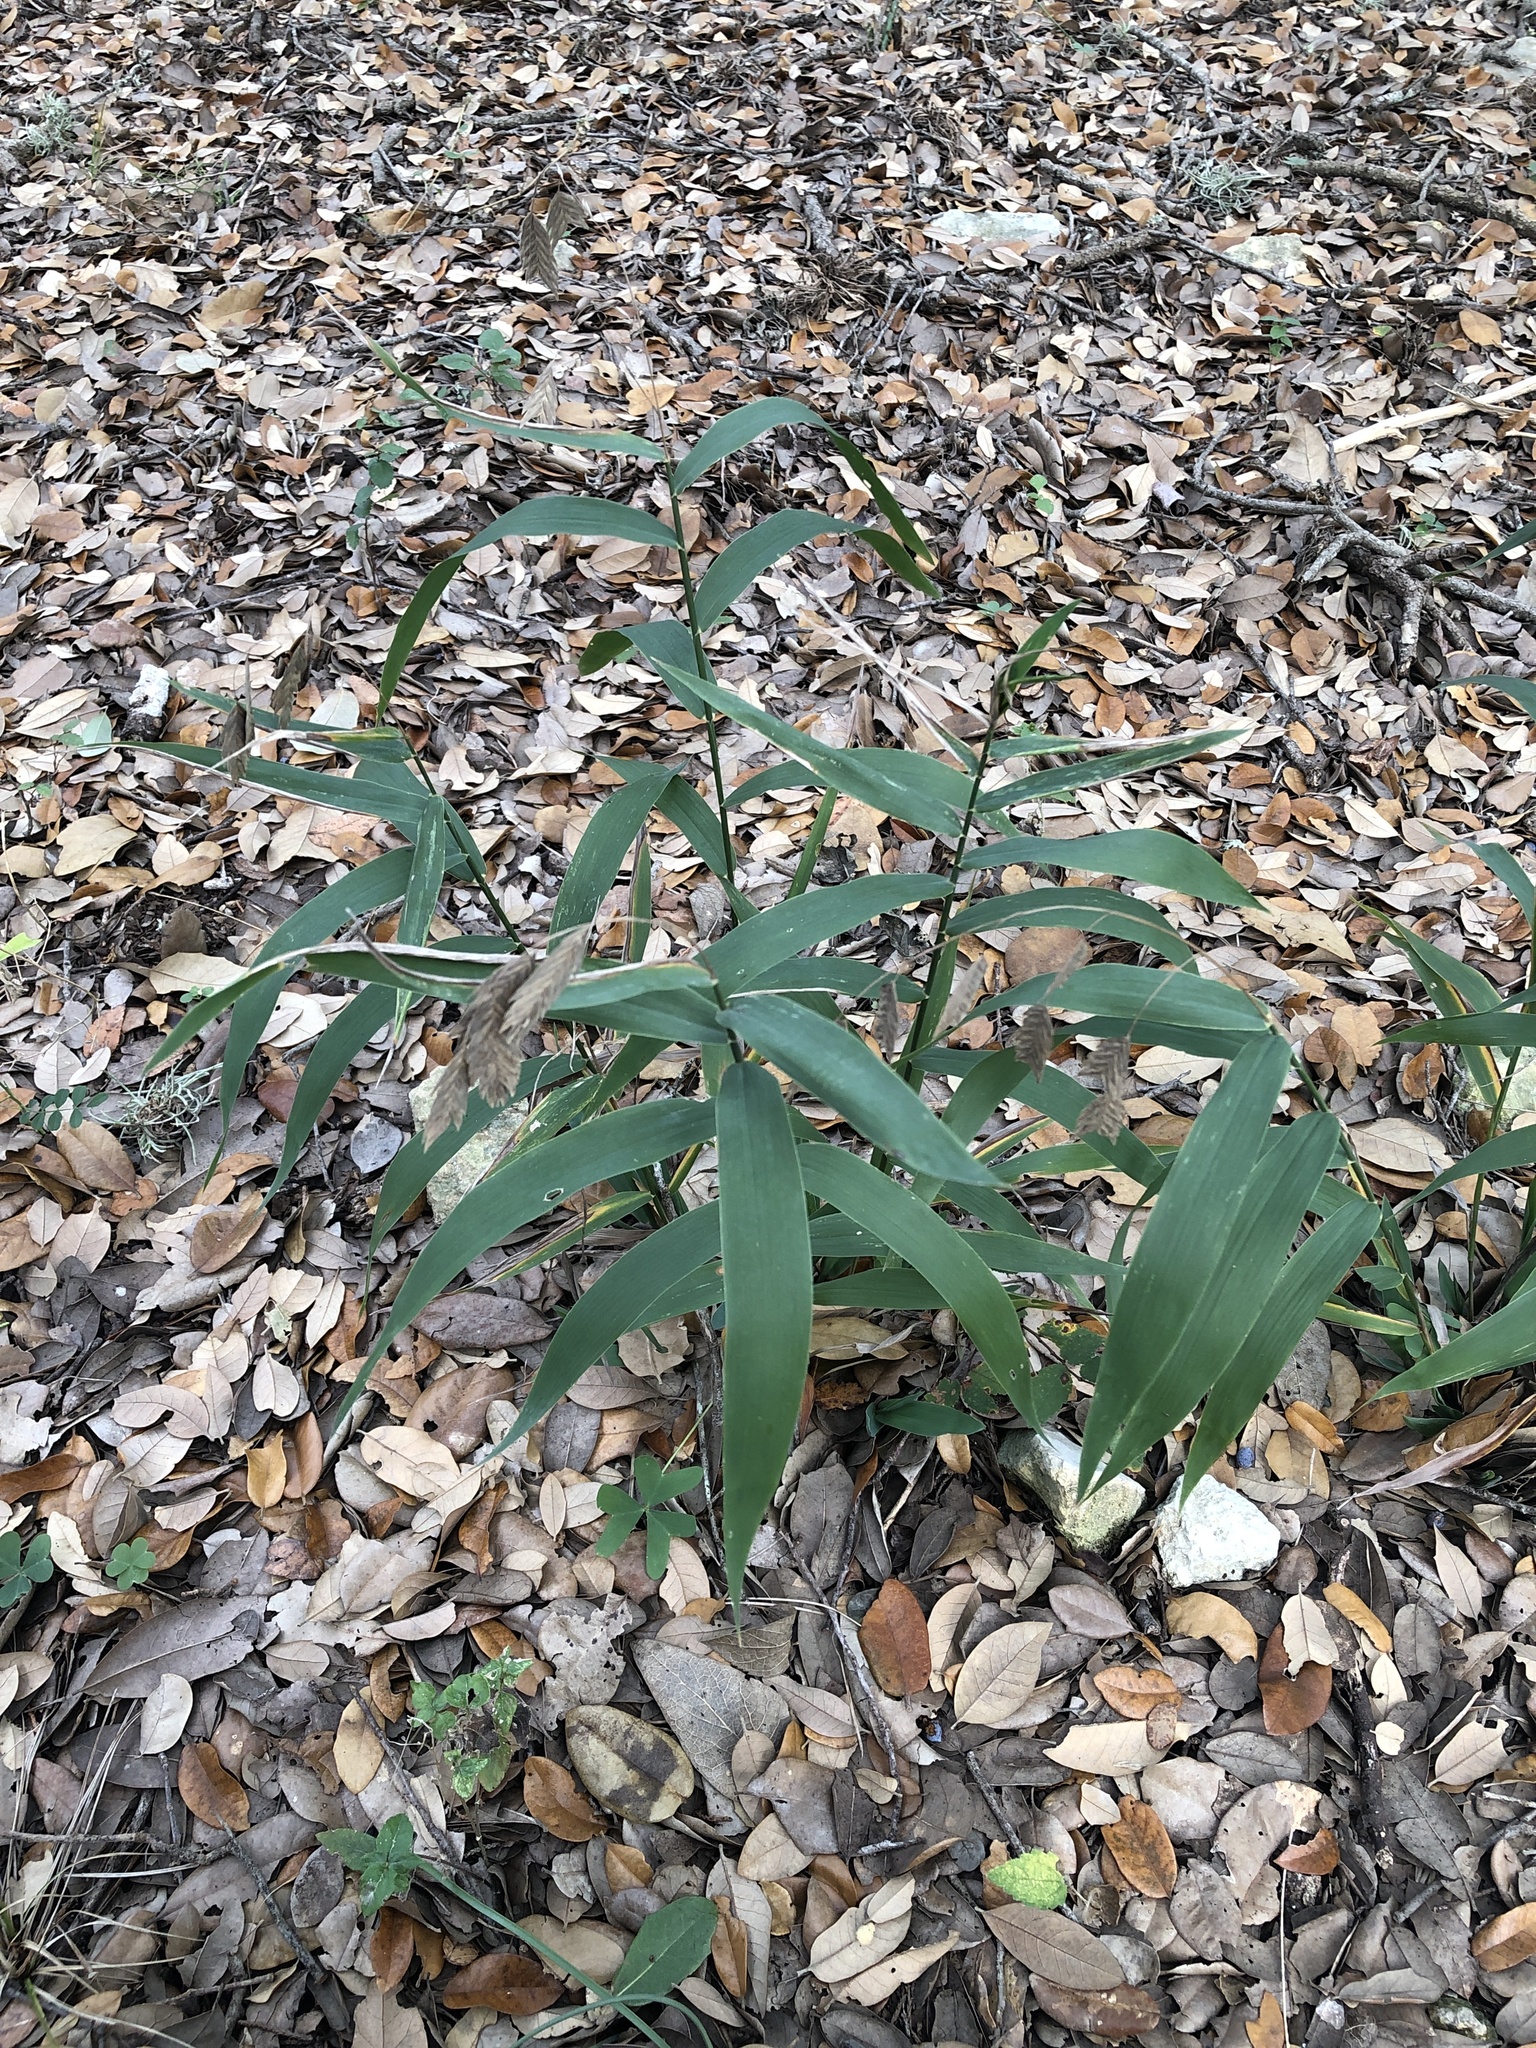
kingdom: Plantae
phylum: Tracheophyta
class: Liliopsida
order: Poales
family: Poaceae
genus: Chasmanthium
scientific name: Chasmanthium latifolium
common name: Broad-leaved chasmanthium
